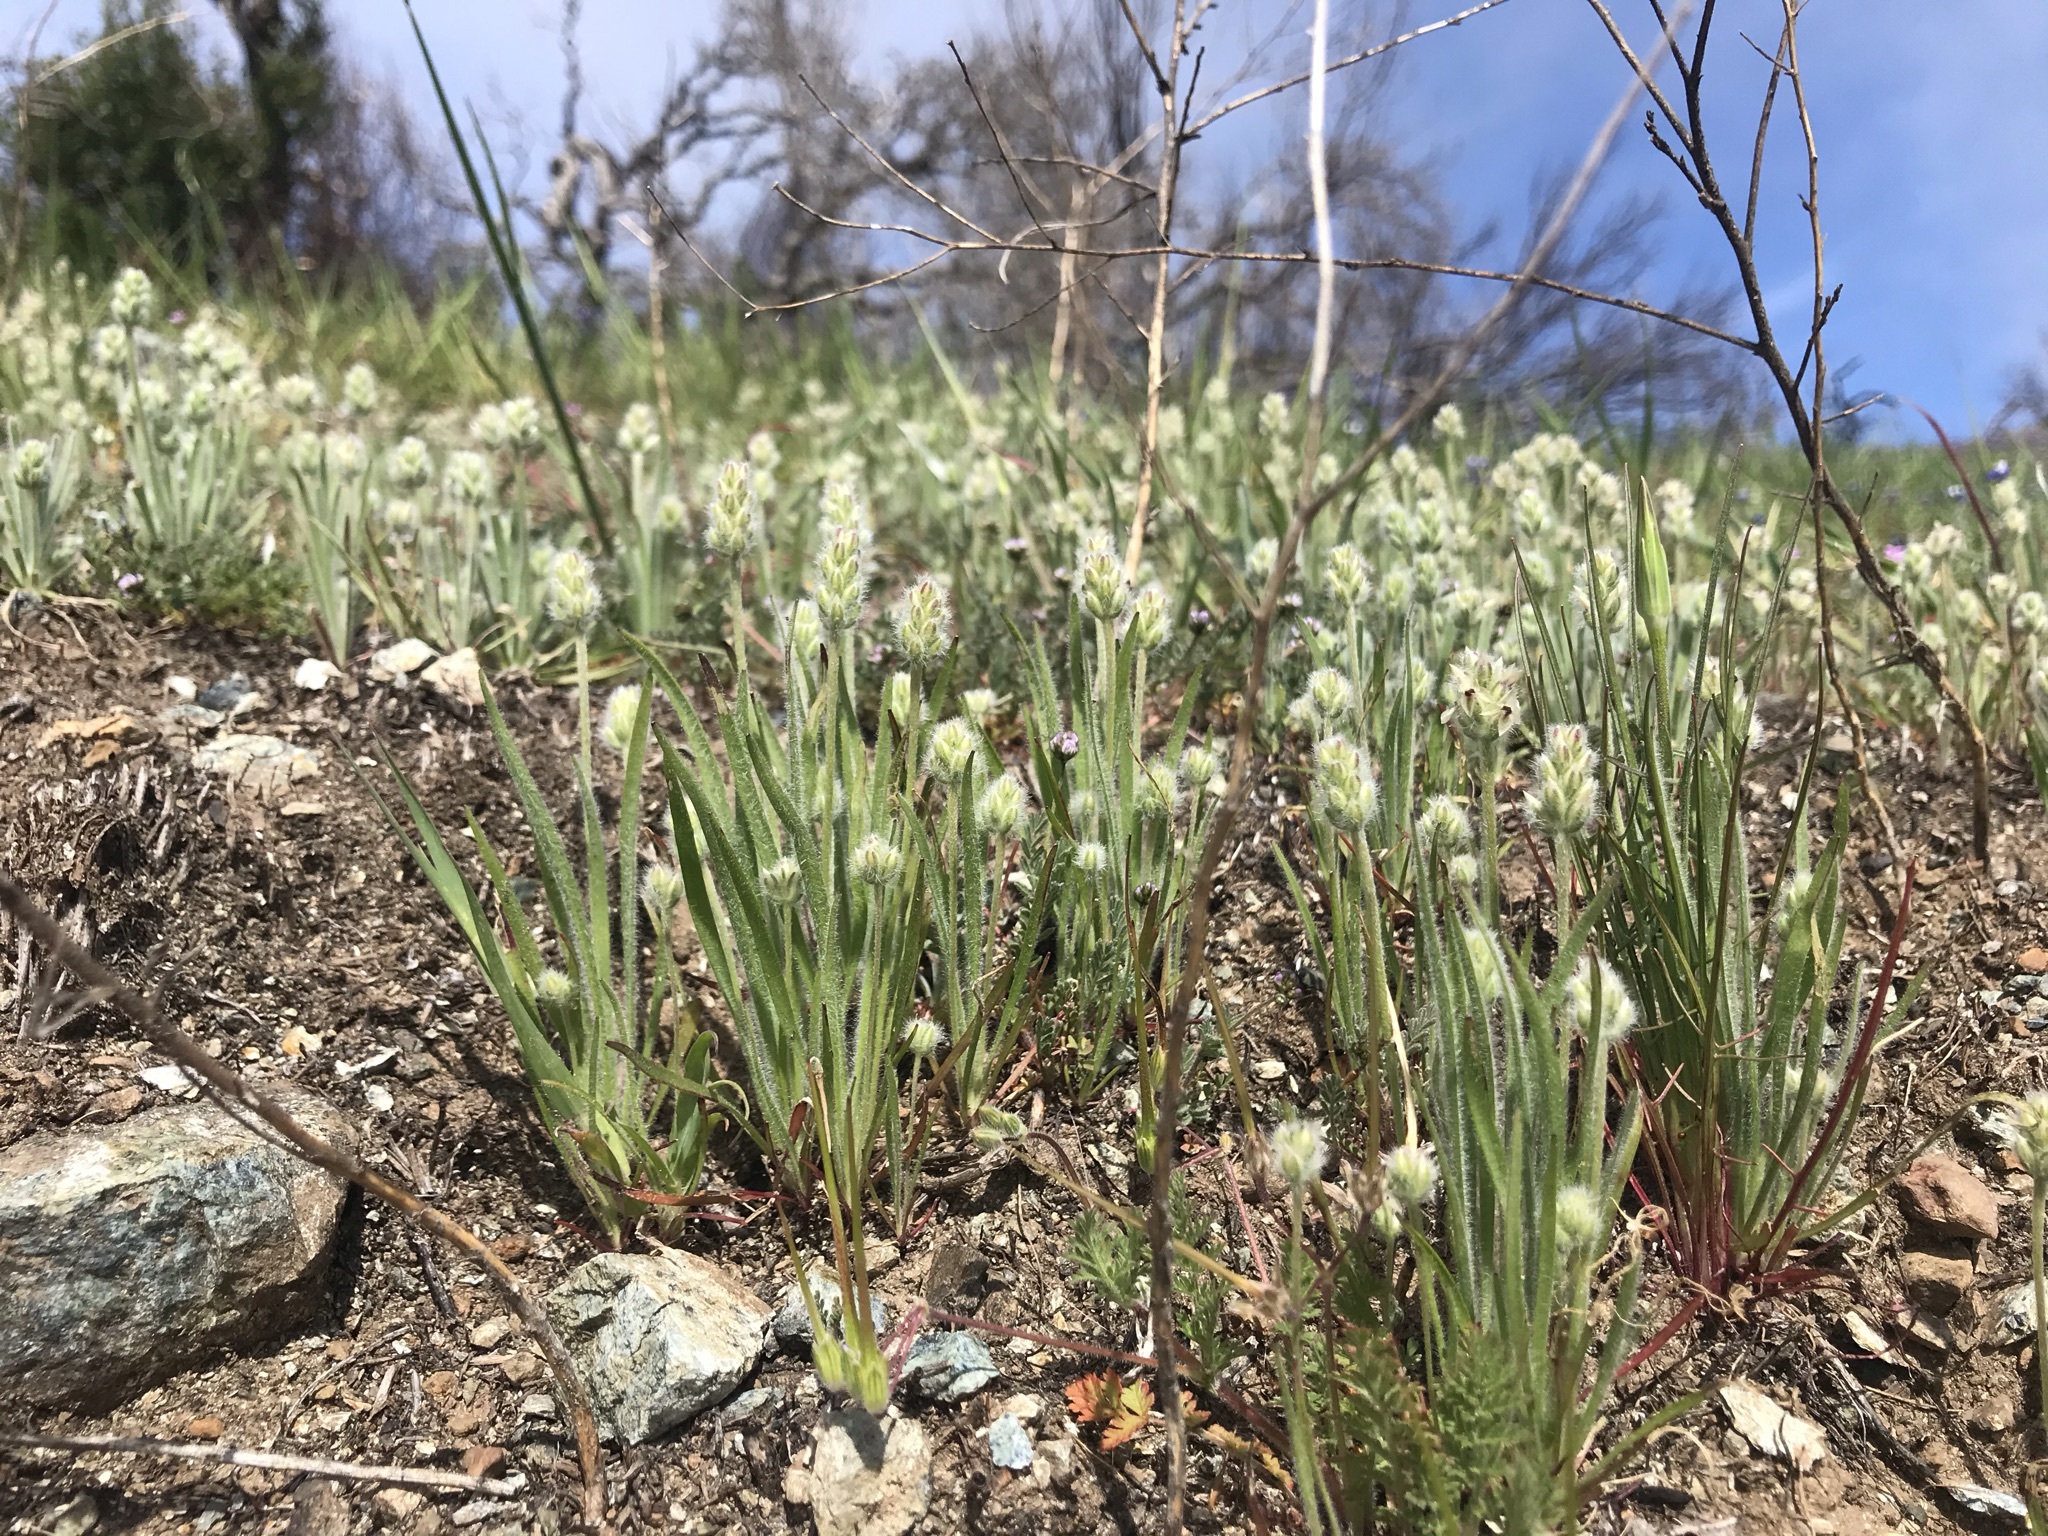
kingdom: Plantae
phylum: Tracheophyta
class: Magnoliopsida
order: Lamiales
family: Plantaginaceae
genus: Plantago
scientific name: Plantago erecta
